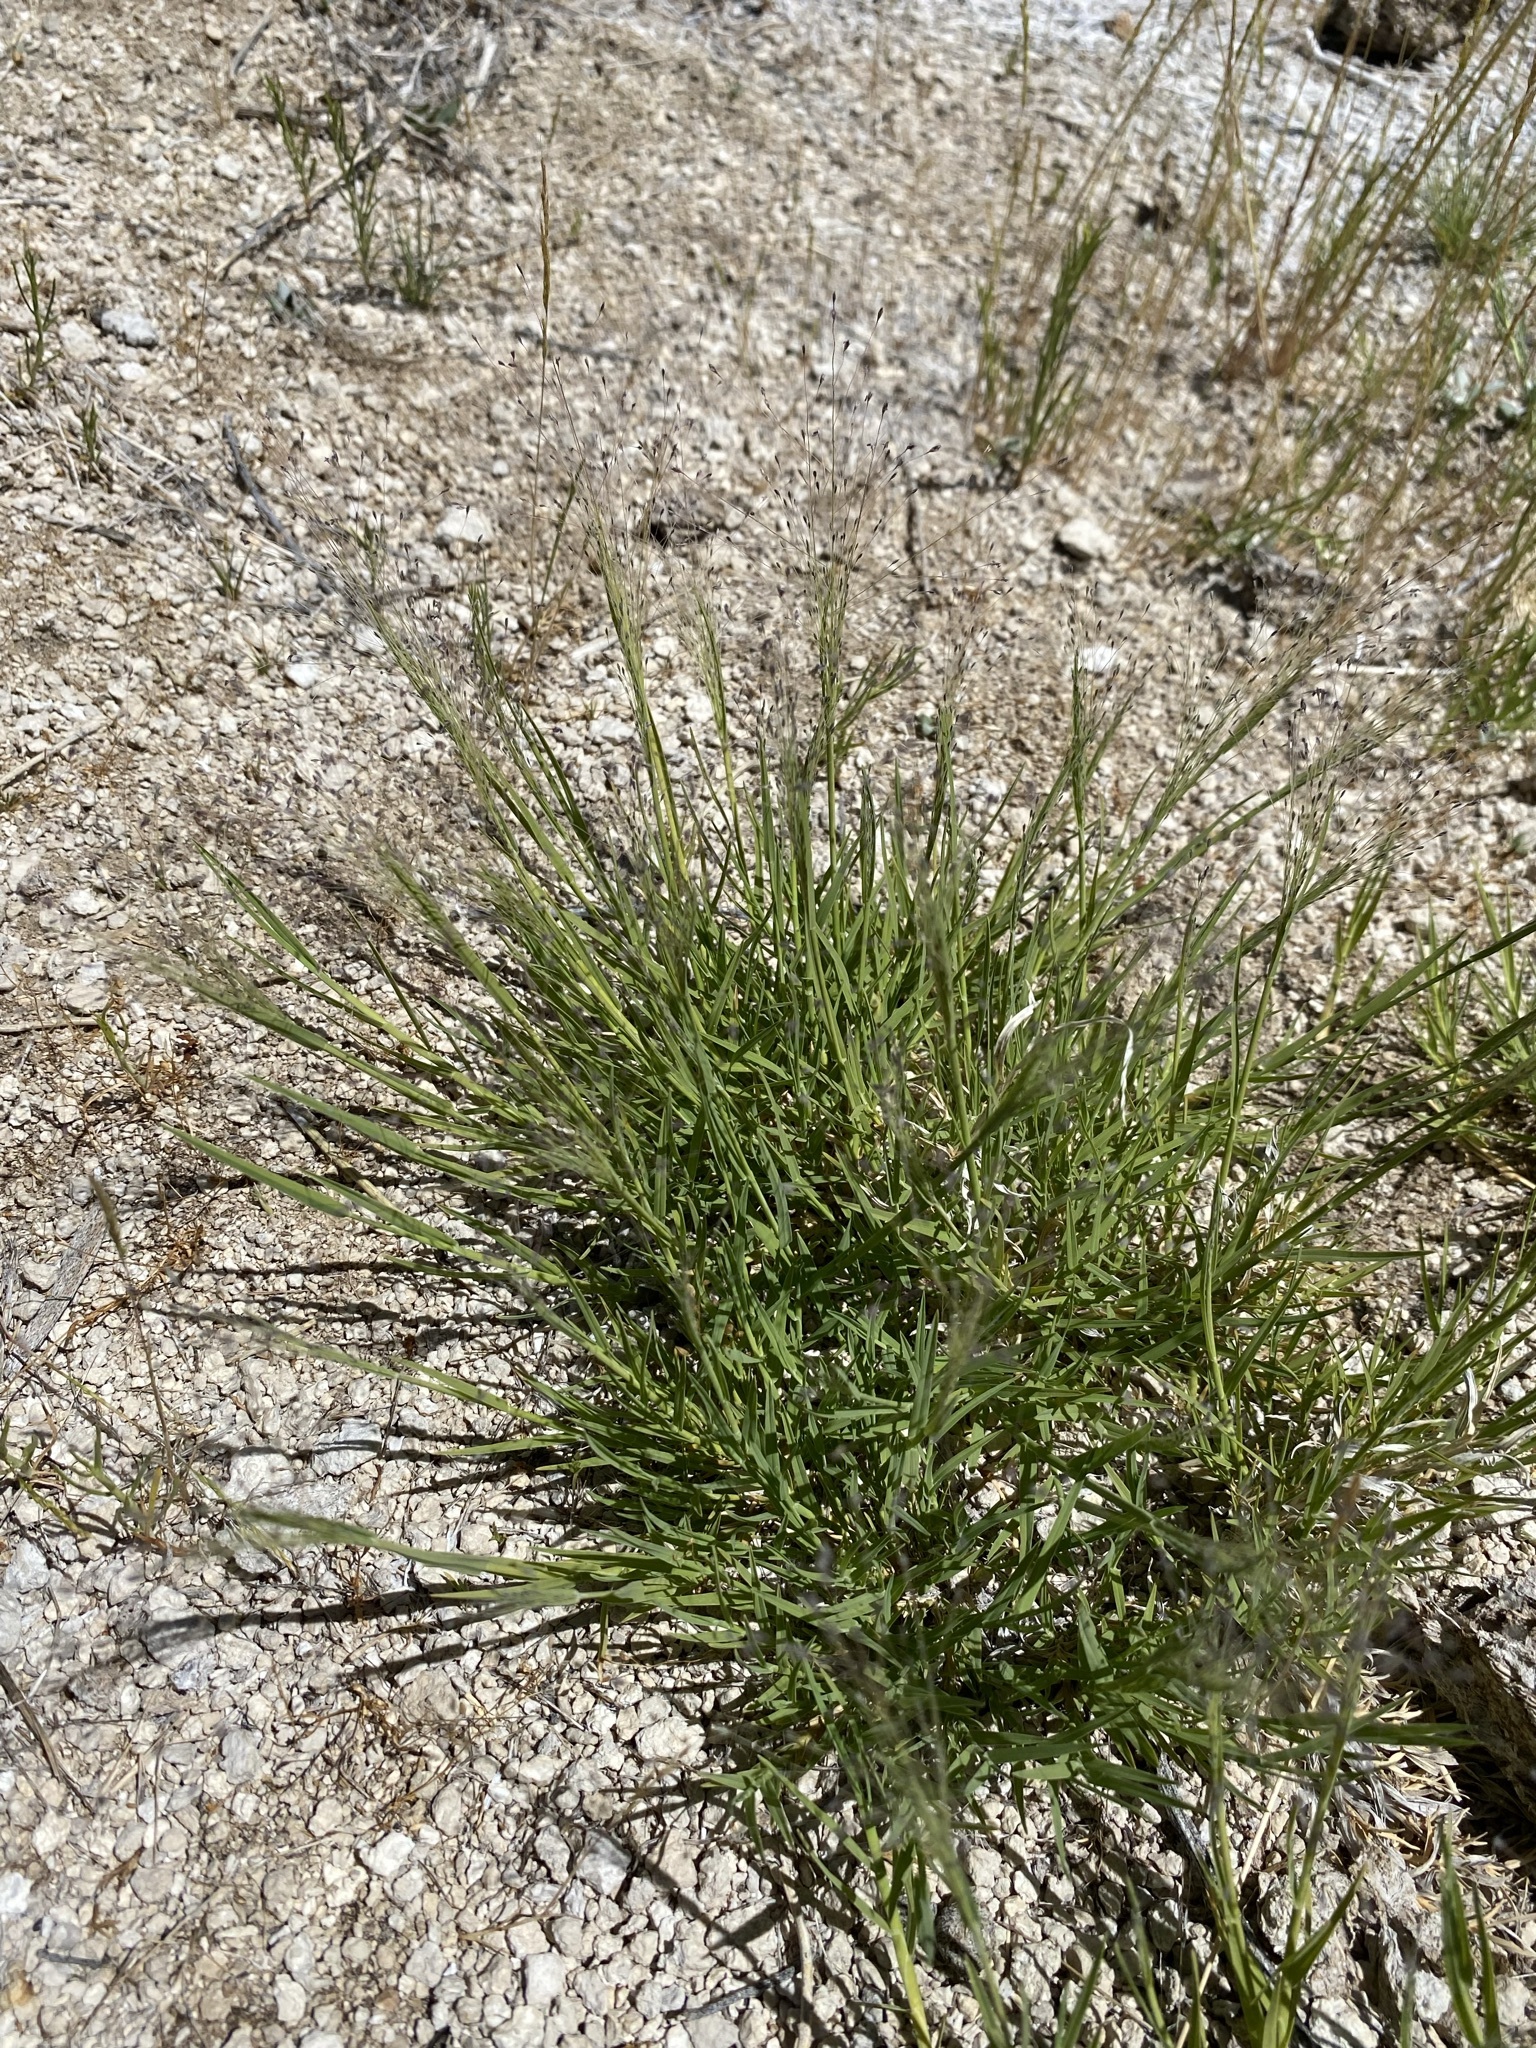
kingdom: Plantae
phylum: Tracheophyta
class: Liliopsida
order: Poales
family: Poaceae
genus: Muhlenbergia
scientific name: Muhlenbergia asperifolia
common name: Alkali muhly
